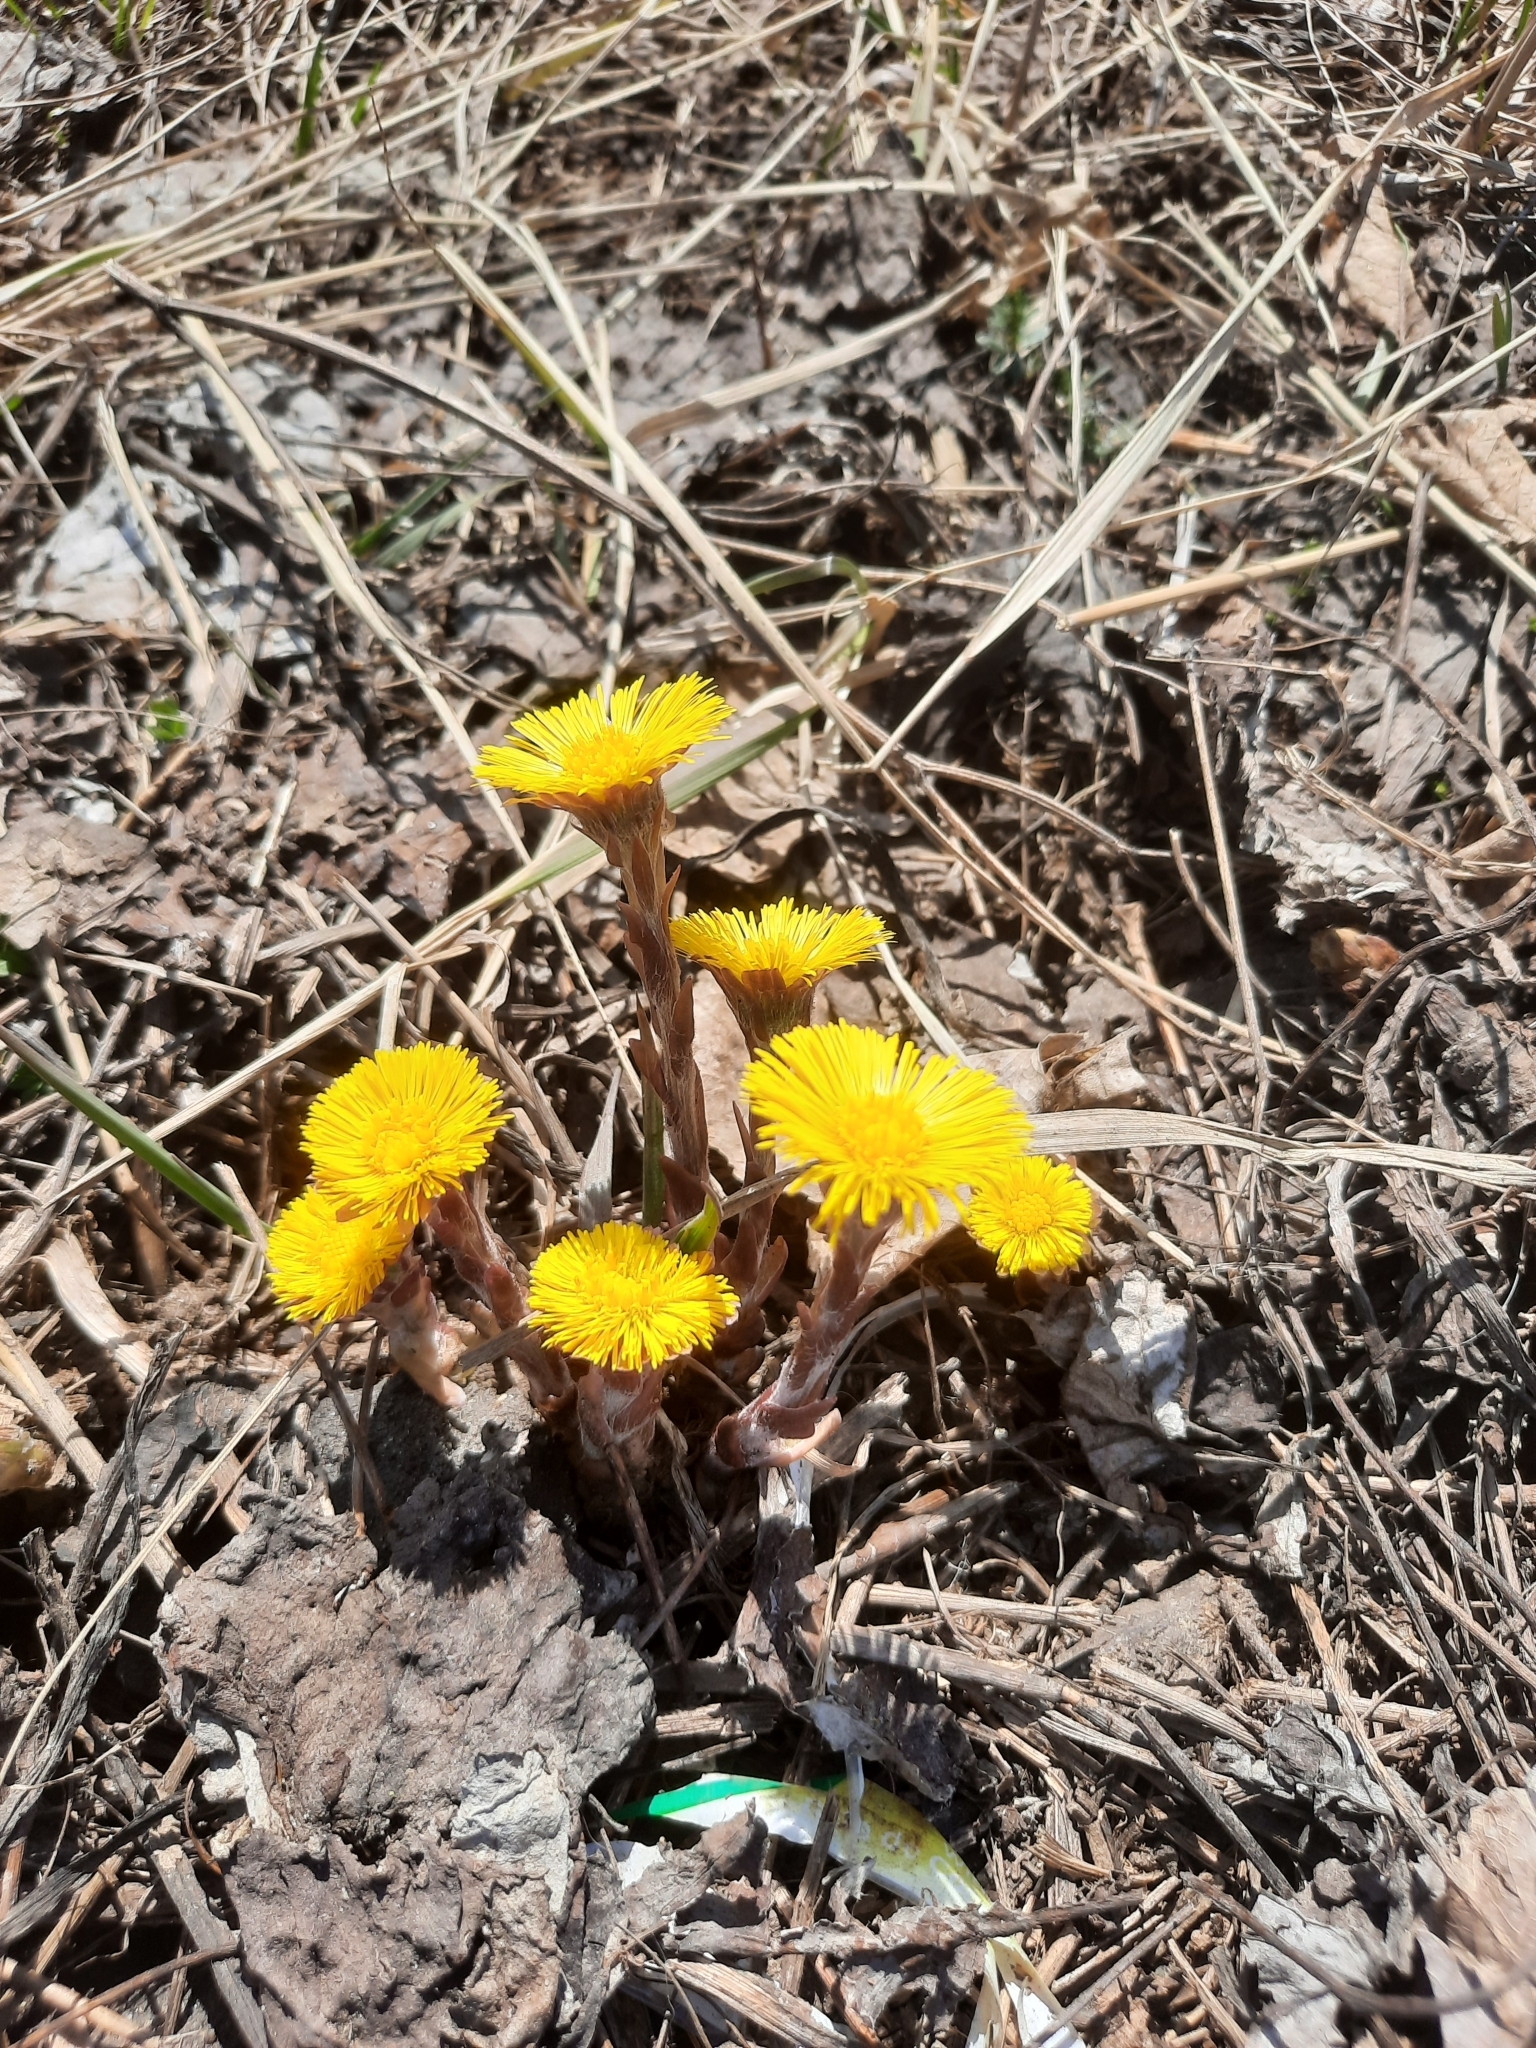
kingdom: Plantae
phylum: Tracheophyta
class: Magnoliopsida
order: Asterales
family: Asteraceae
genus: Tussilago
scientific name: Tussilago farfara
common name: Coltsfoot
